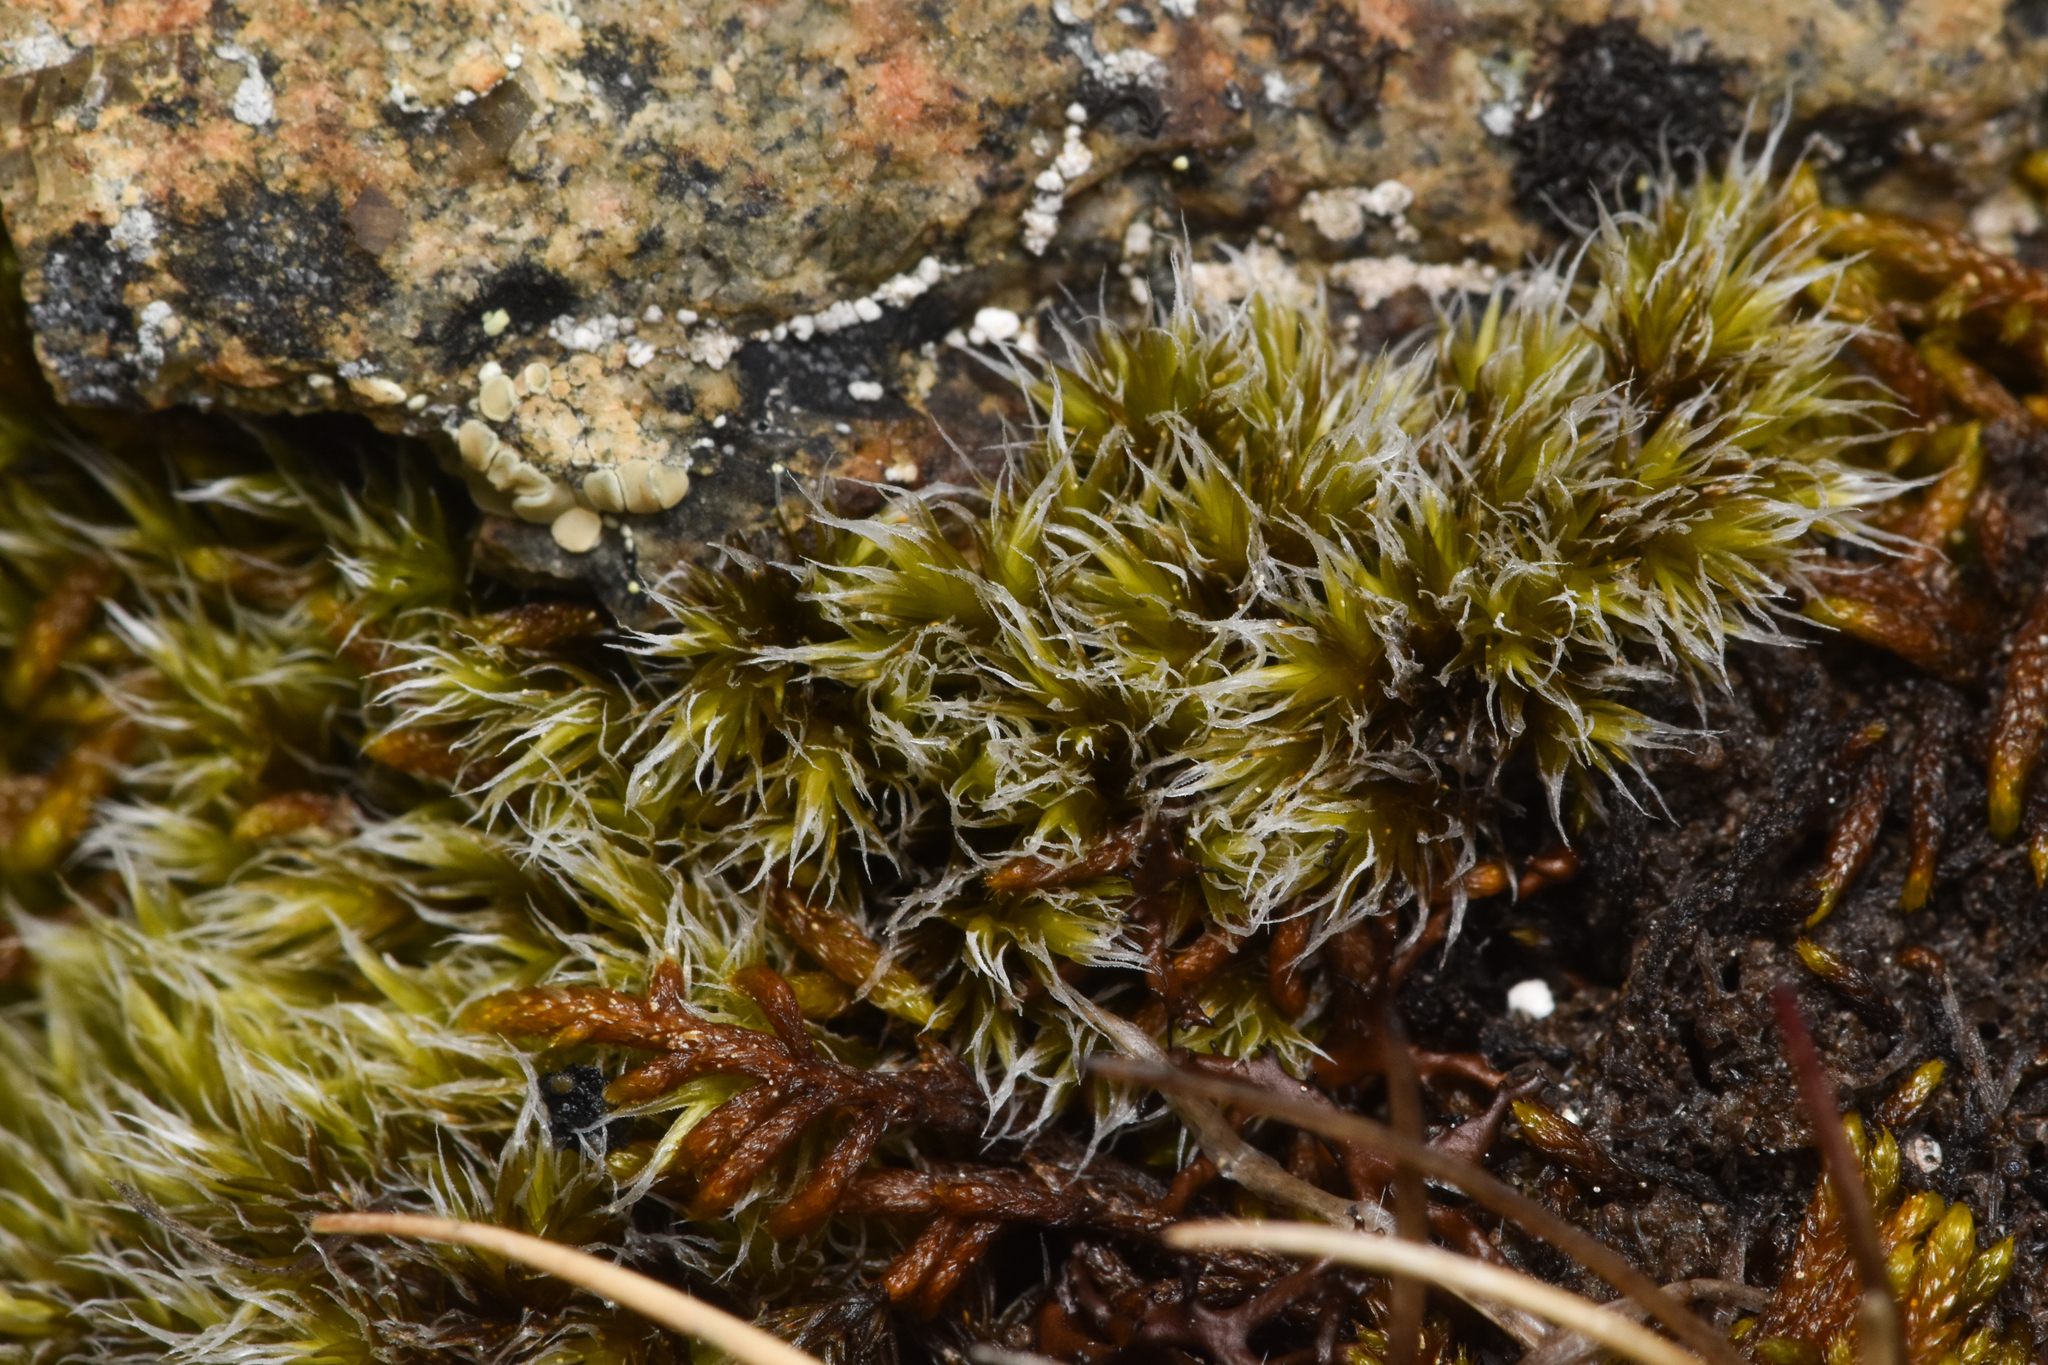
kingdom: Plantae
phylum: Bryophyta
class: Bryopsida
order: Grimmiales
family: Grimmiaceae
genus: Racomitrium
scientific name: Racomitrium lanuginosum
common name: Hoary rock moss
